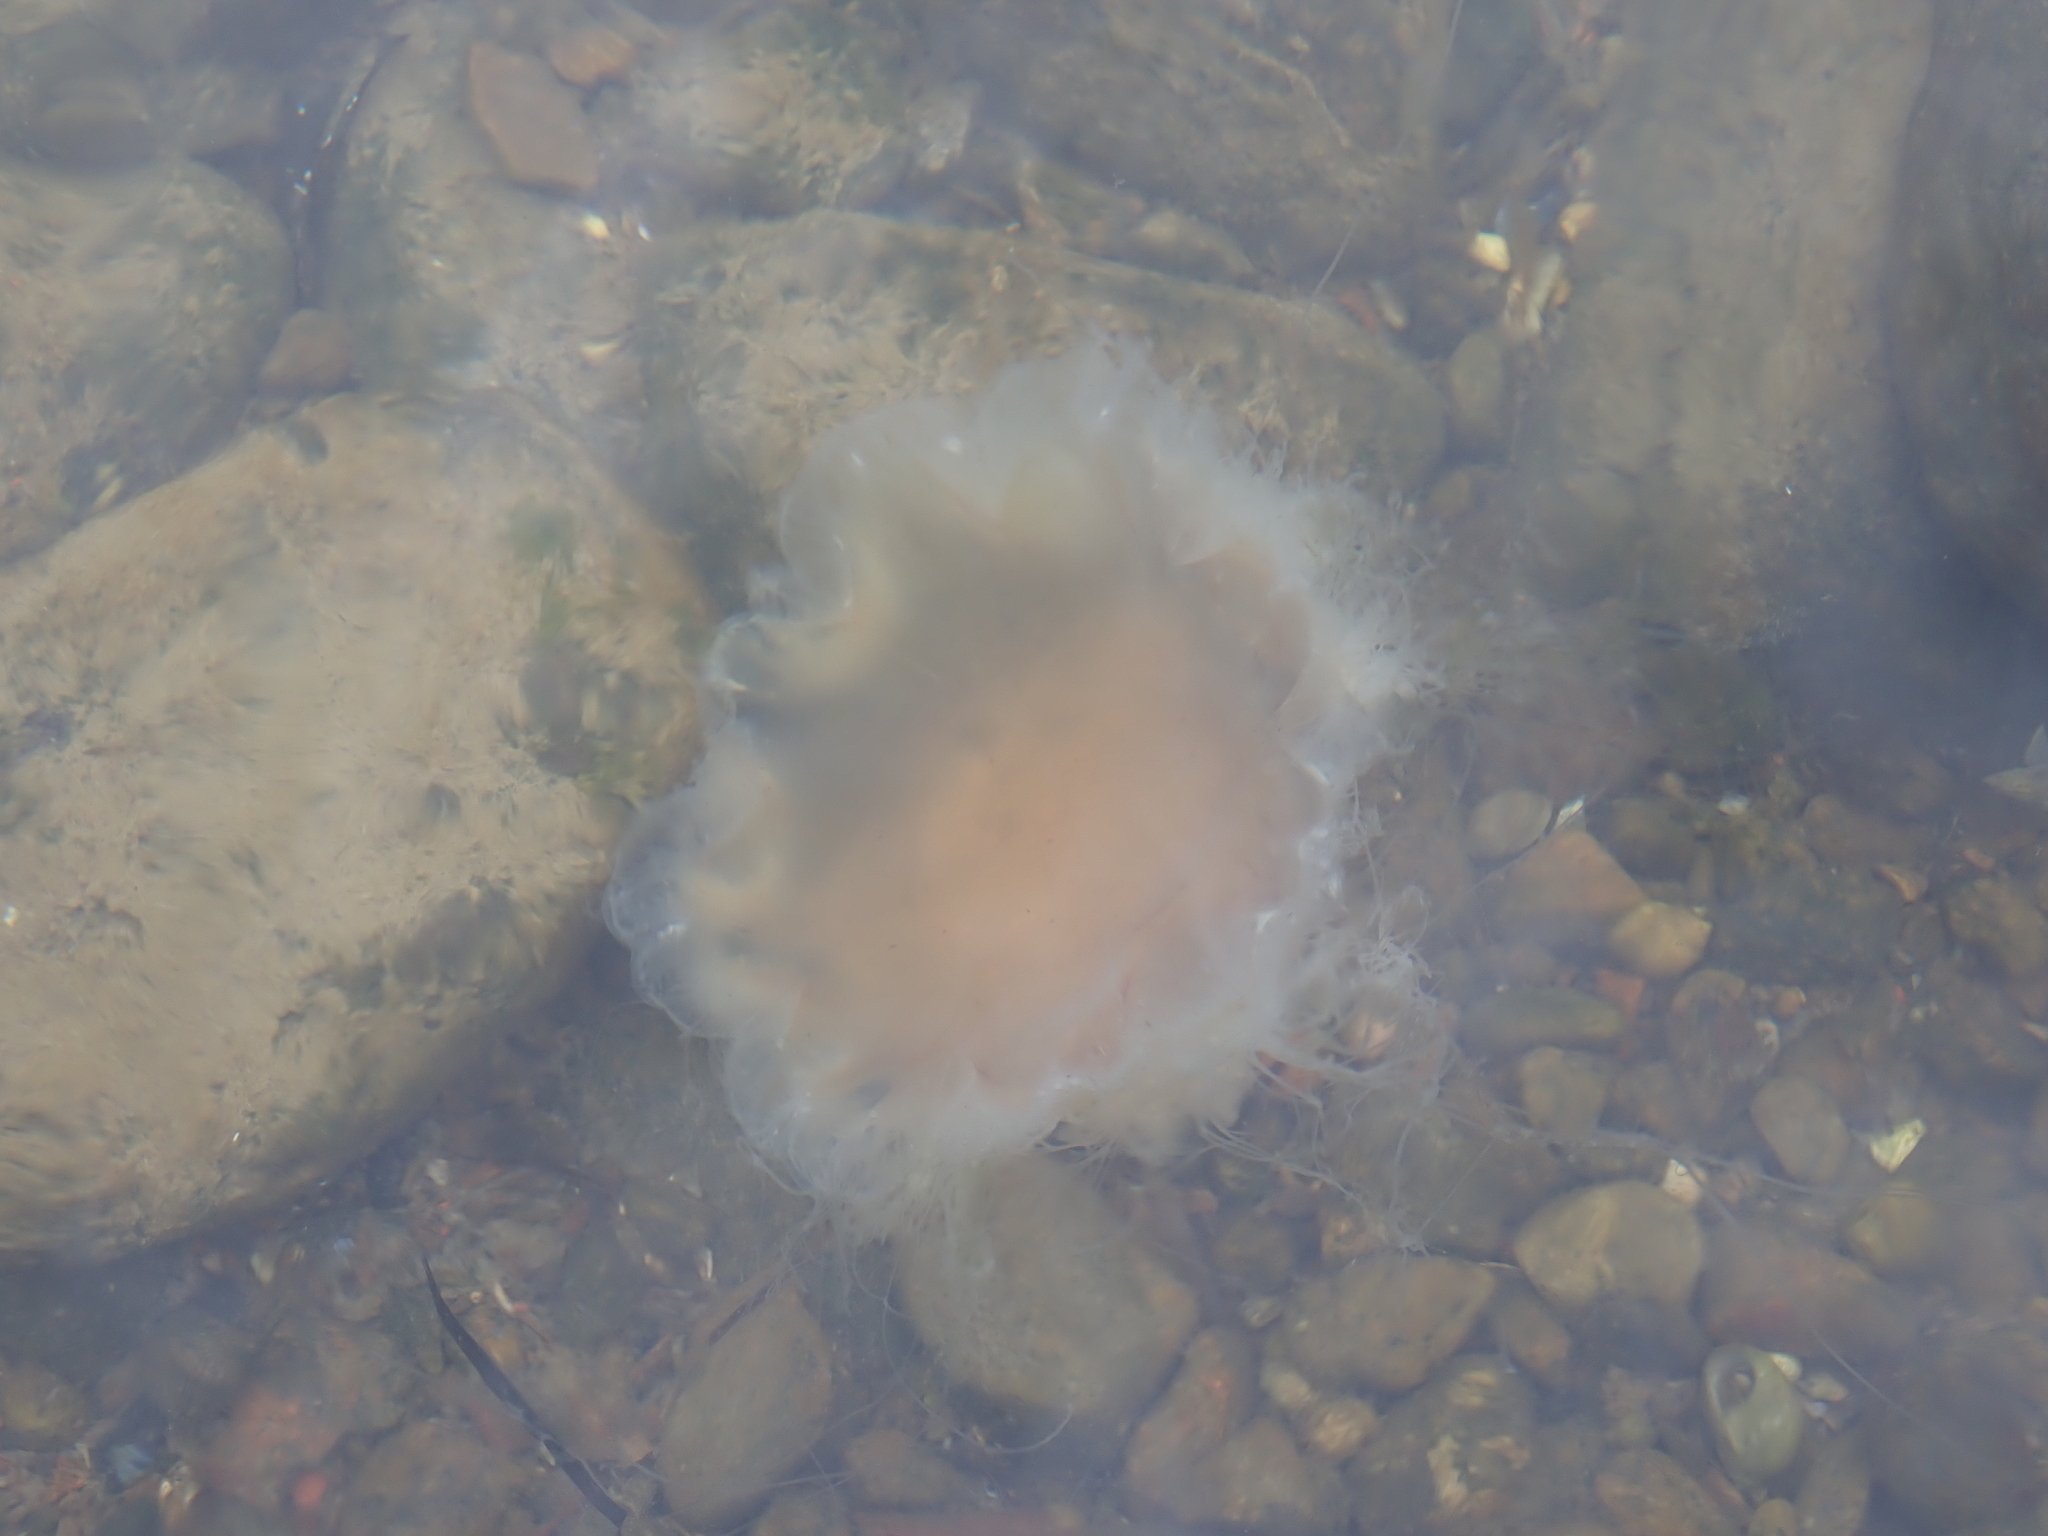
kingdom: Animalia
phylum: Cnidaria
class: Scyphozoa
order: Semaeostomeae
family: Cyaneidae
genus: Cyanea
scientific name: Cyanea capillata
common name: Lion's mane jellyfish
